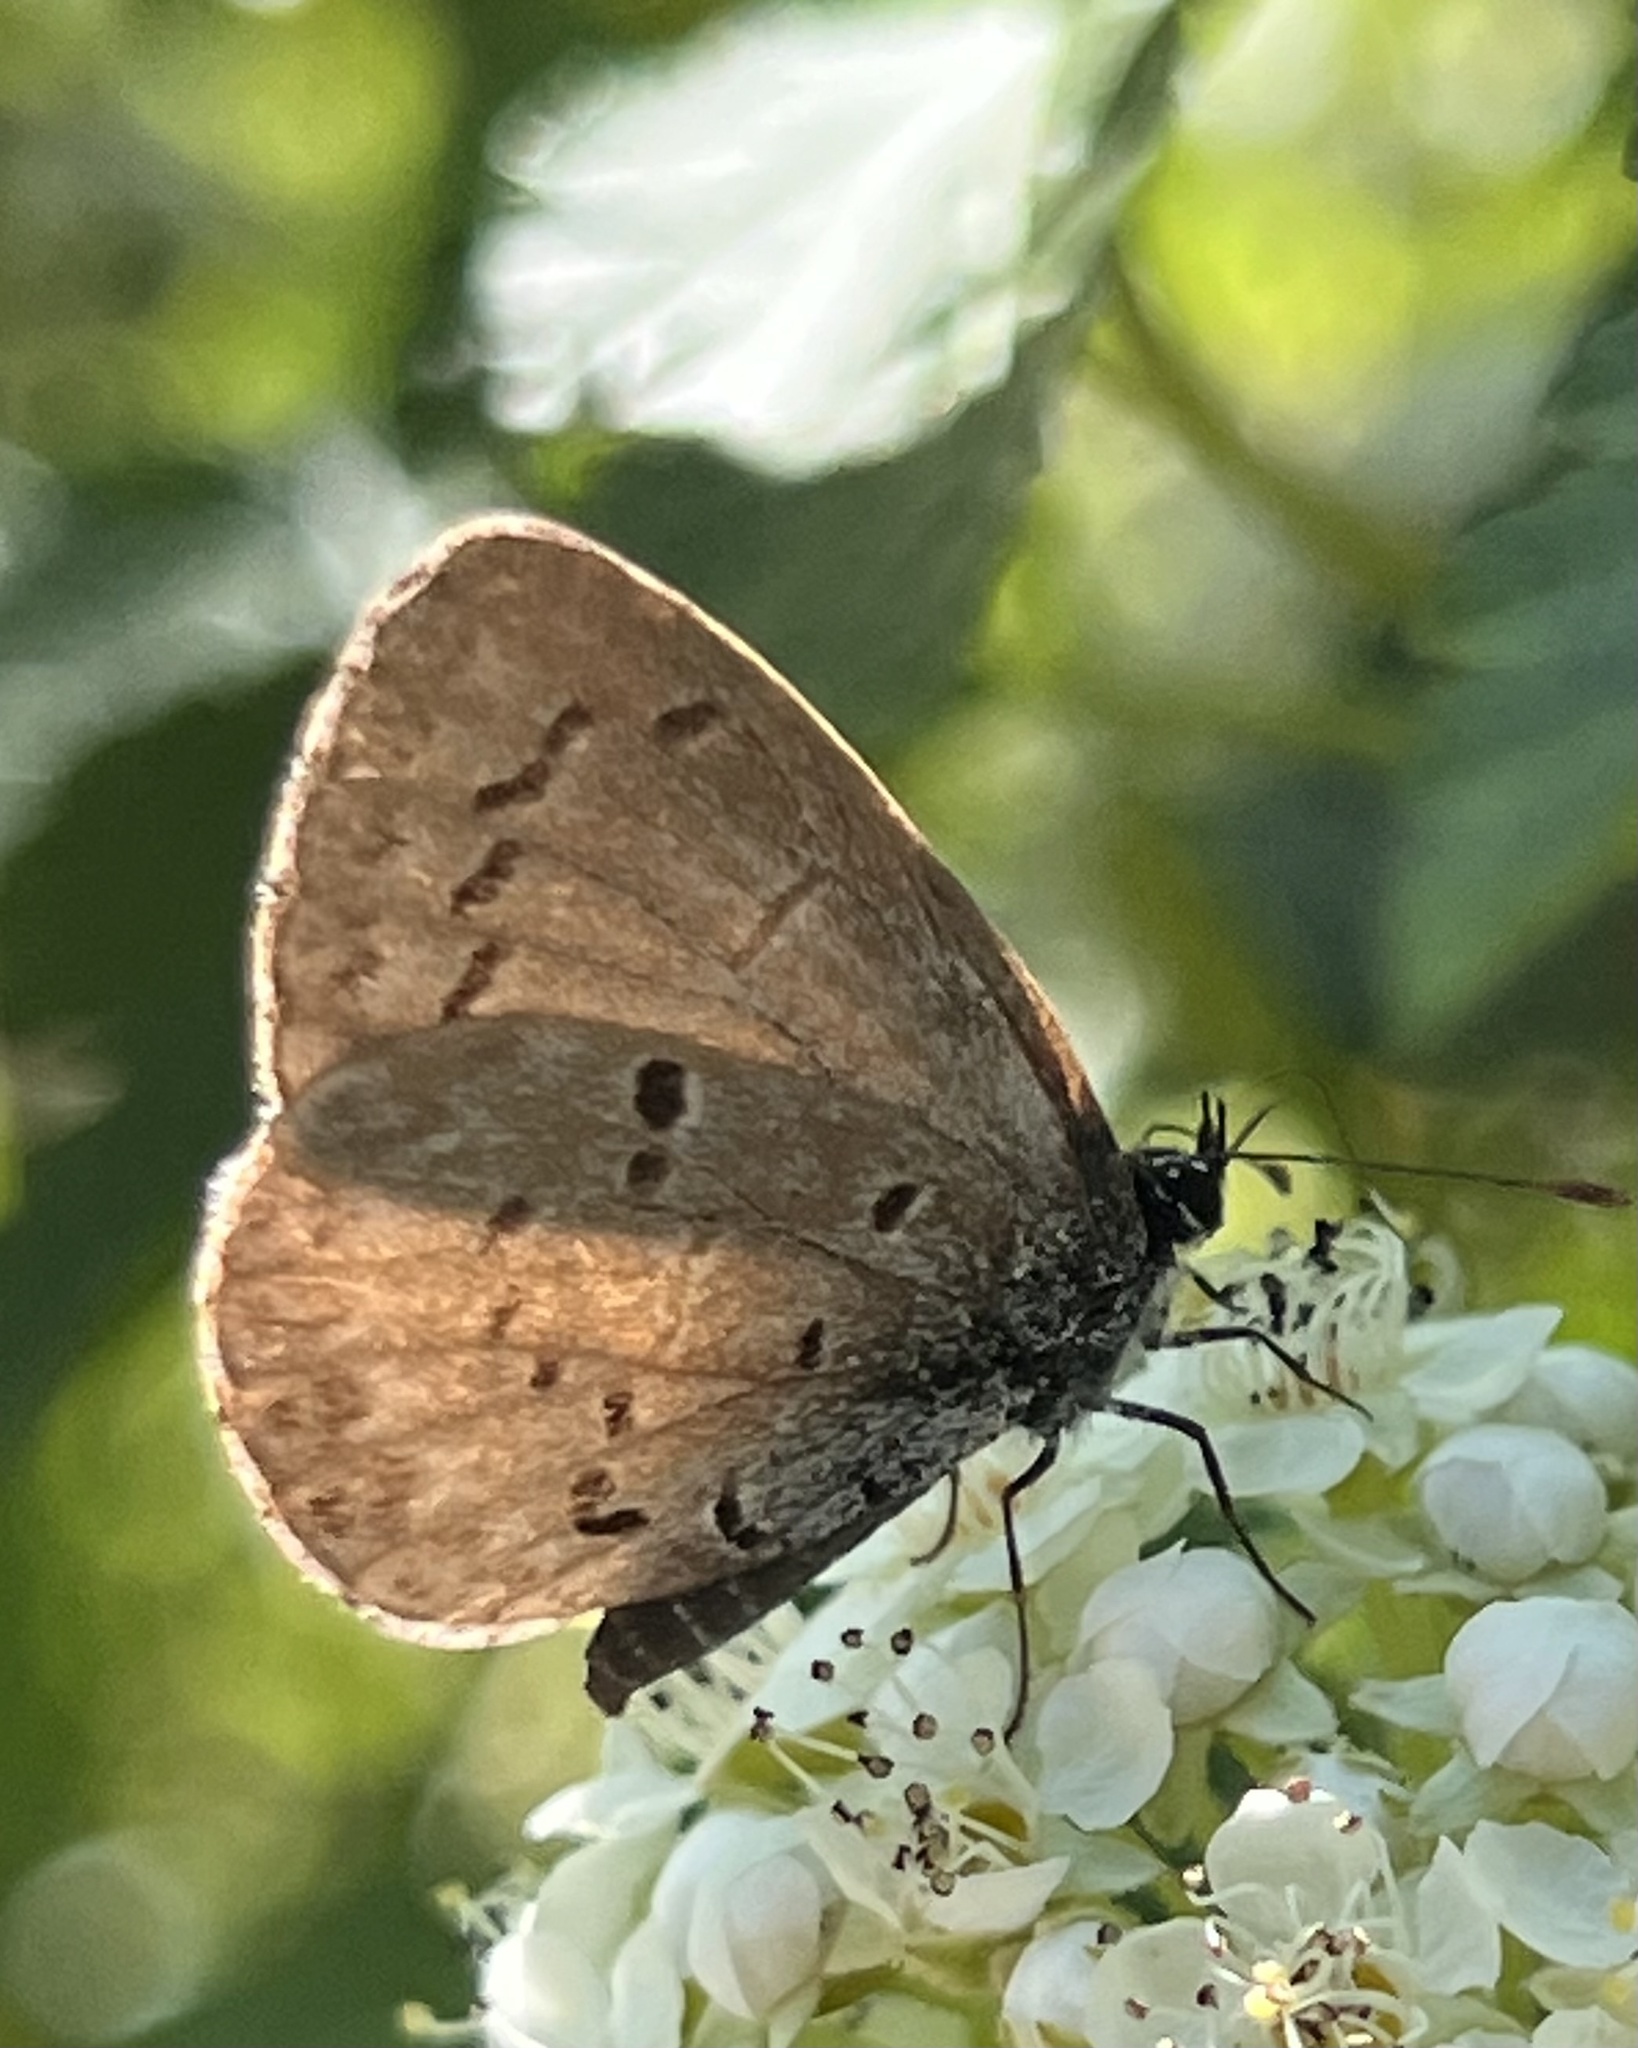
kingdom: Animalia
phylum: Arthropoda
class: Insecta
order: Lepidoptera
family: Lycaenidae
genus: Celastrina
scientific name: Celastrina lucia
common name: Lucia azure
